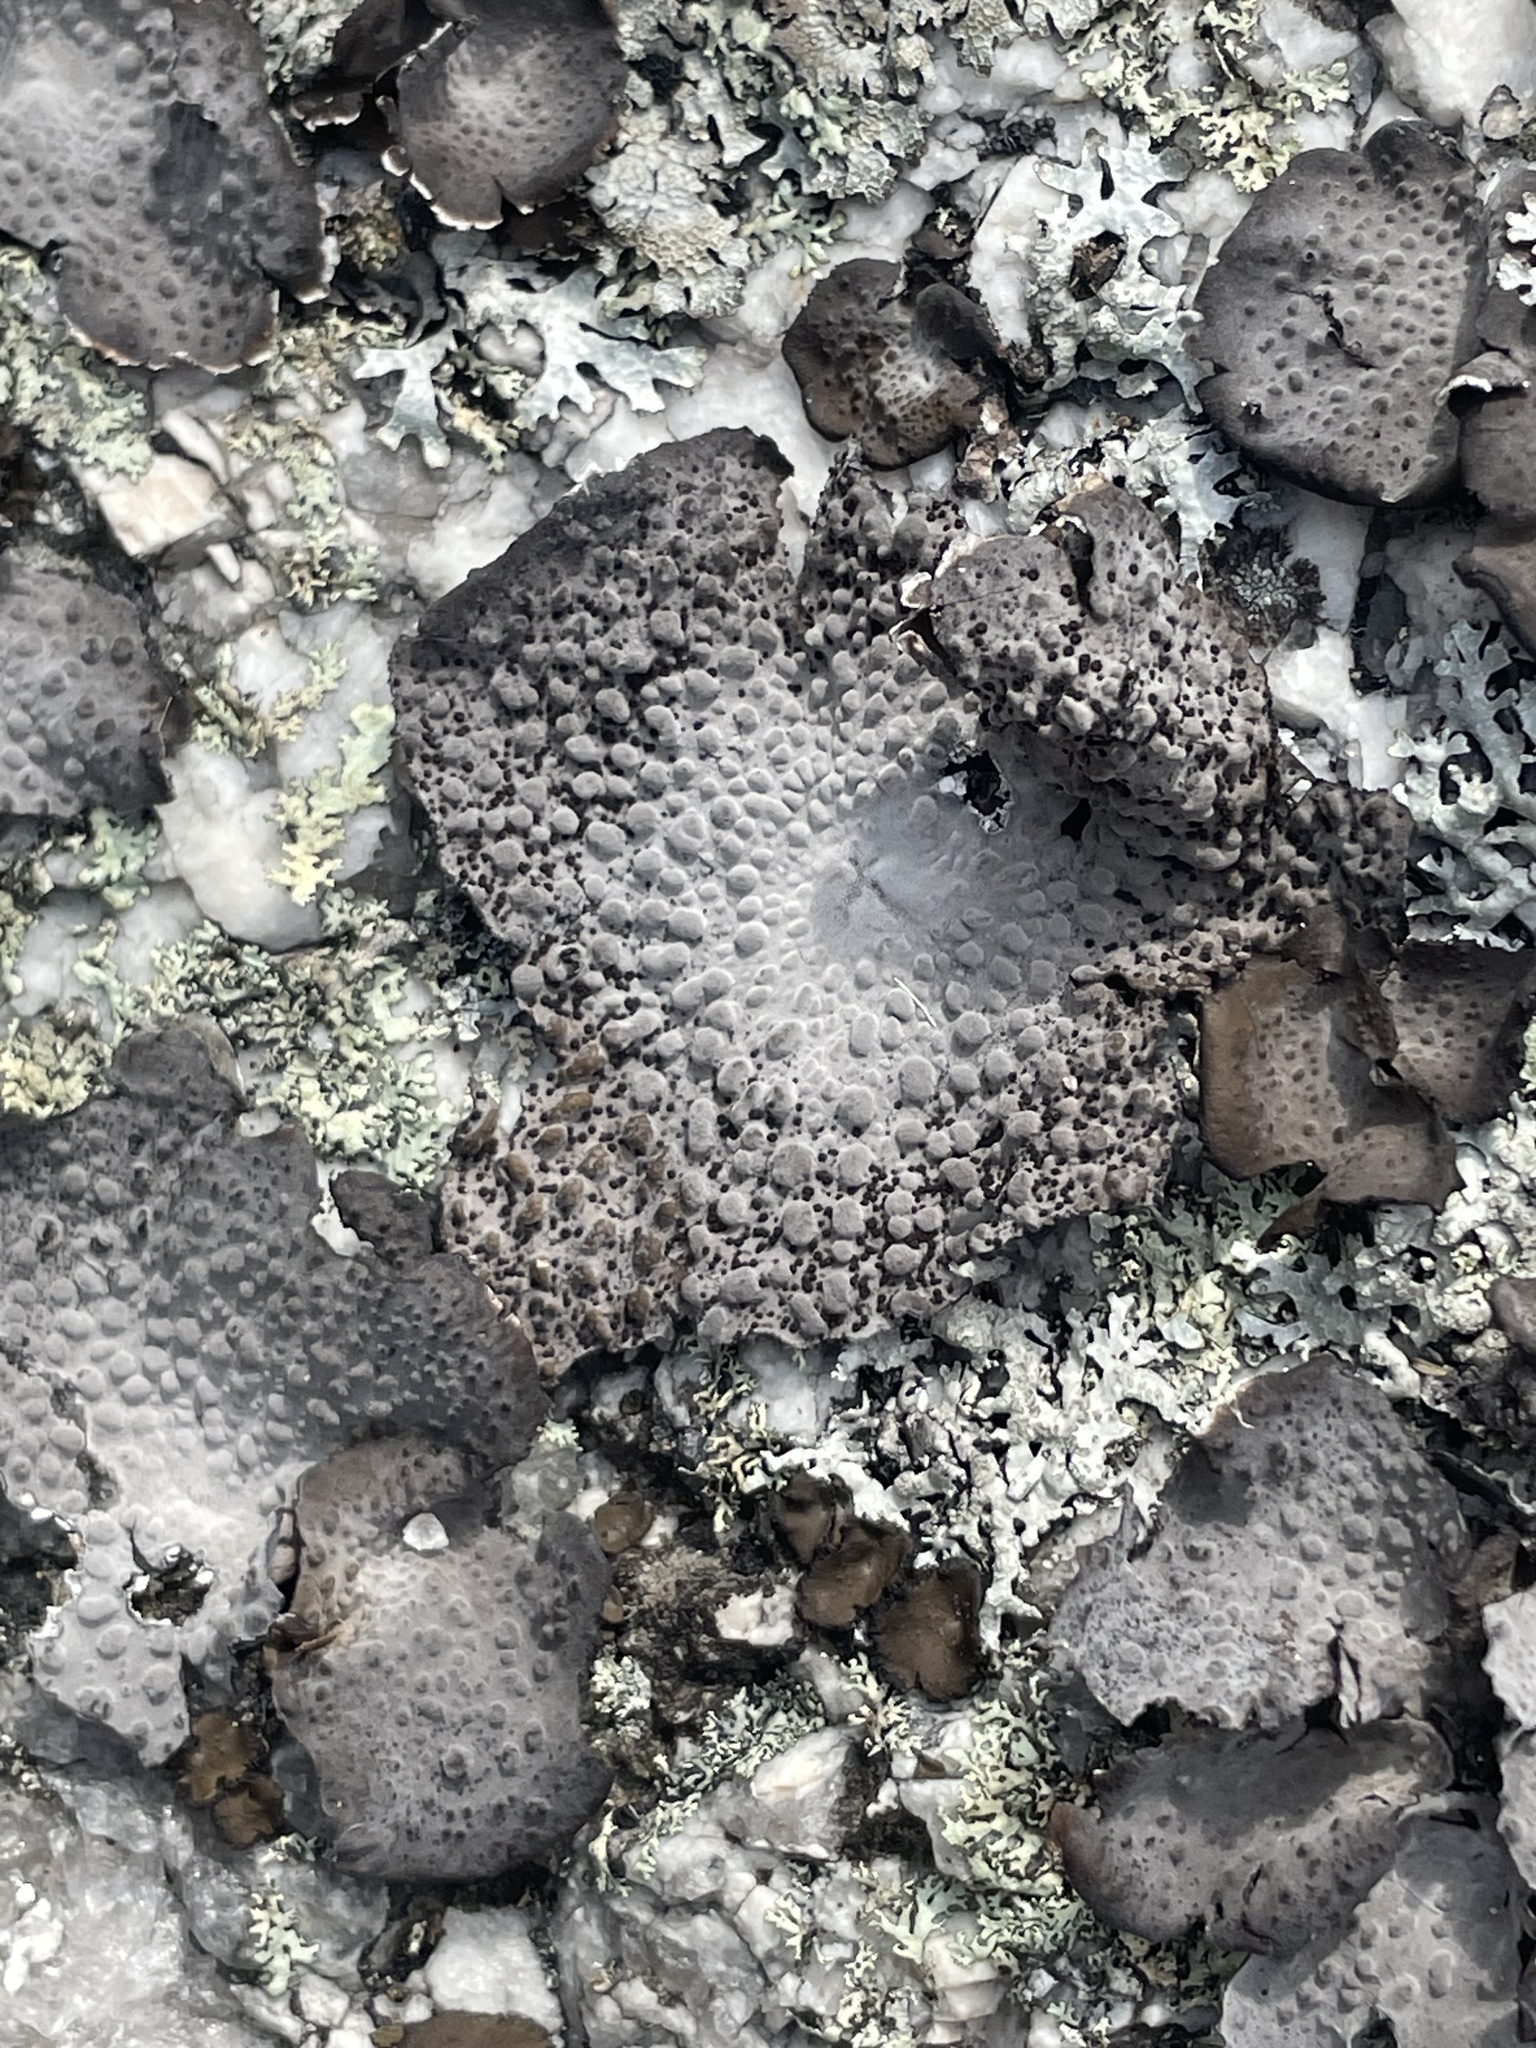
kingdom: Fungi
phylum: Ascomycota
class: Lecanoromycetes
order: Umbilicariales
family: Umbilicariaceae
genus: Lasallia
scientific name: Lasallia papulosa
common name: Common toadskin lichen
